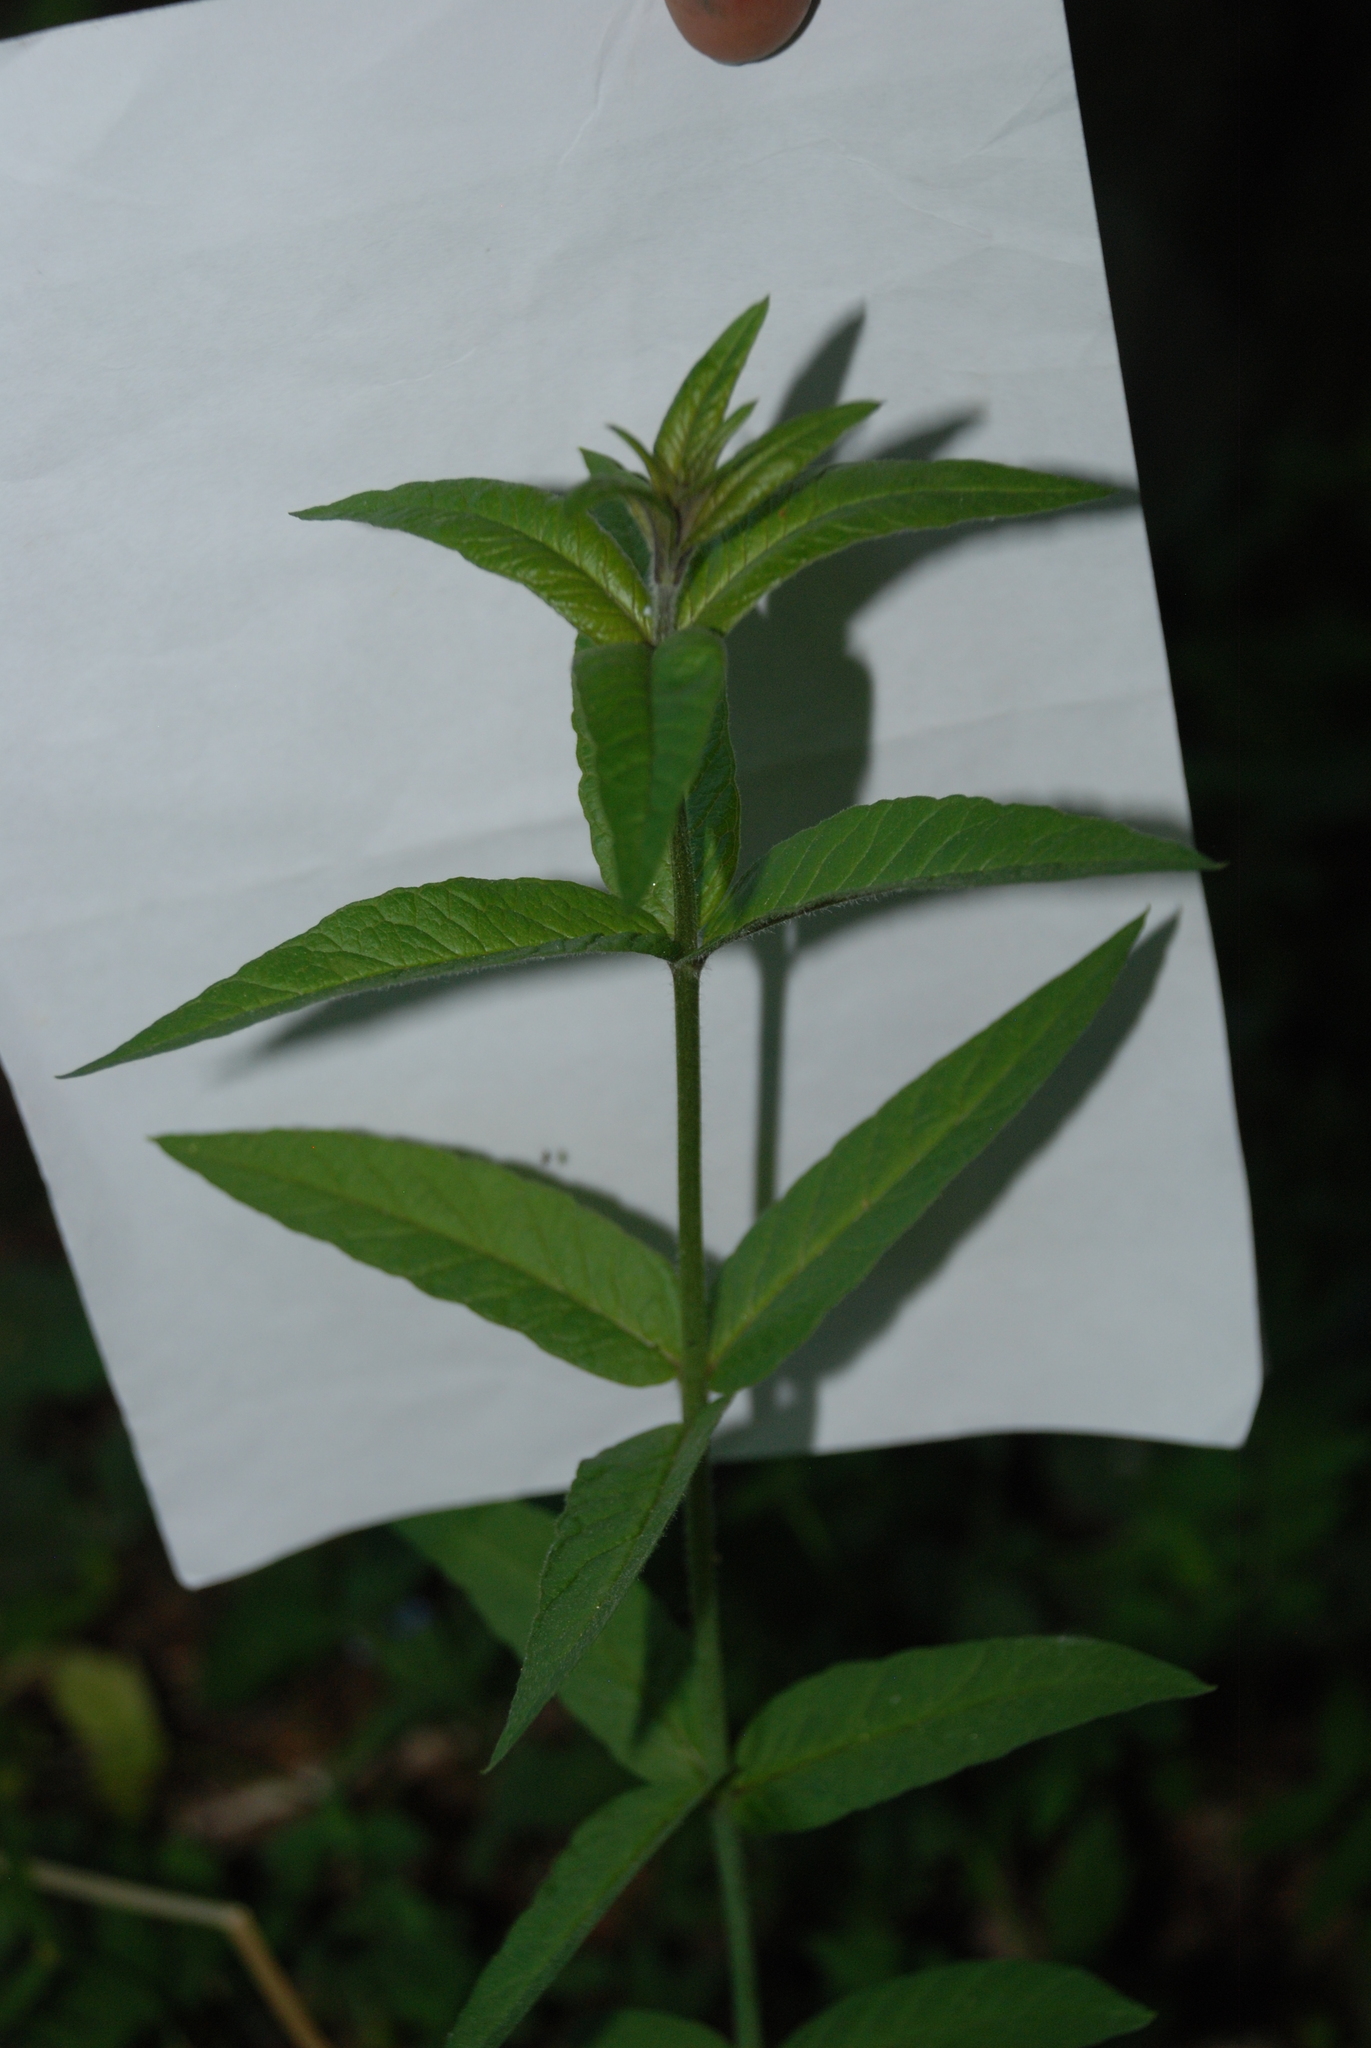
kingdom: Plantae
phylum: Tracheophyta
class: Magnoliopsida
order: Ericales
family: Primulaceae
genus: Lysimachia
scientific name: Lysimachia vulgaris
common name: Yellow loosestrife
